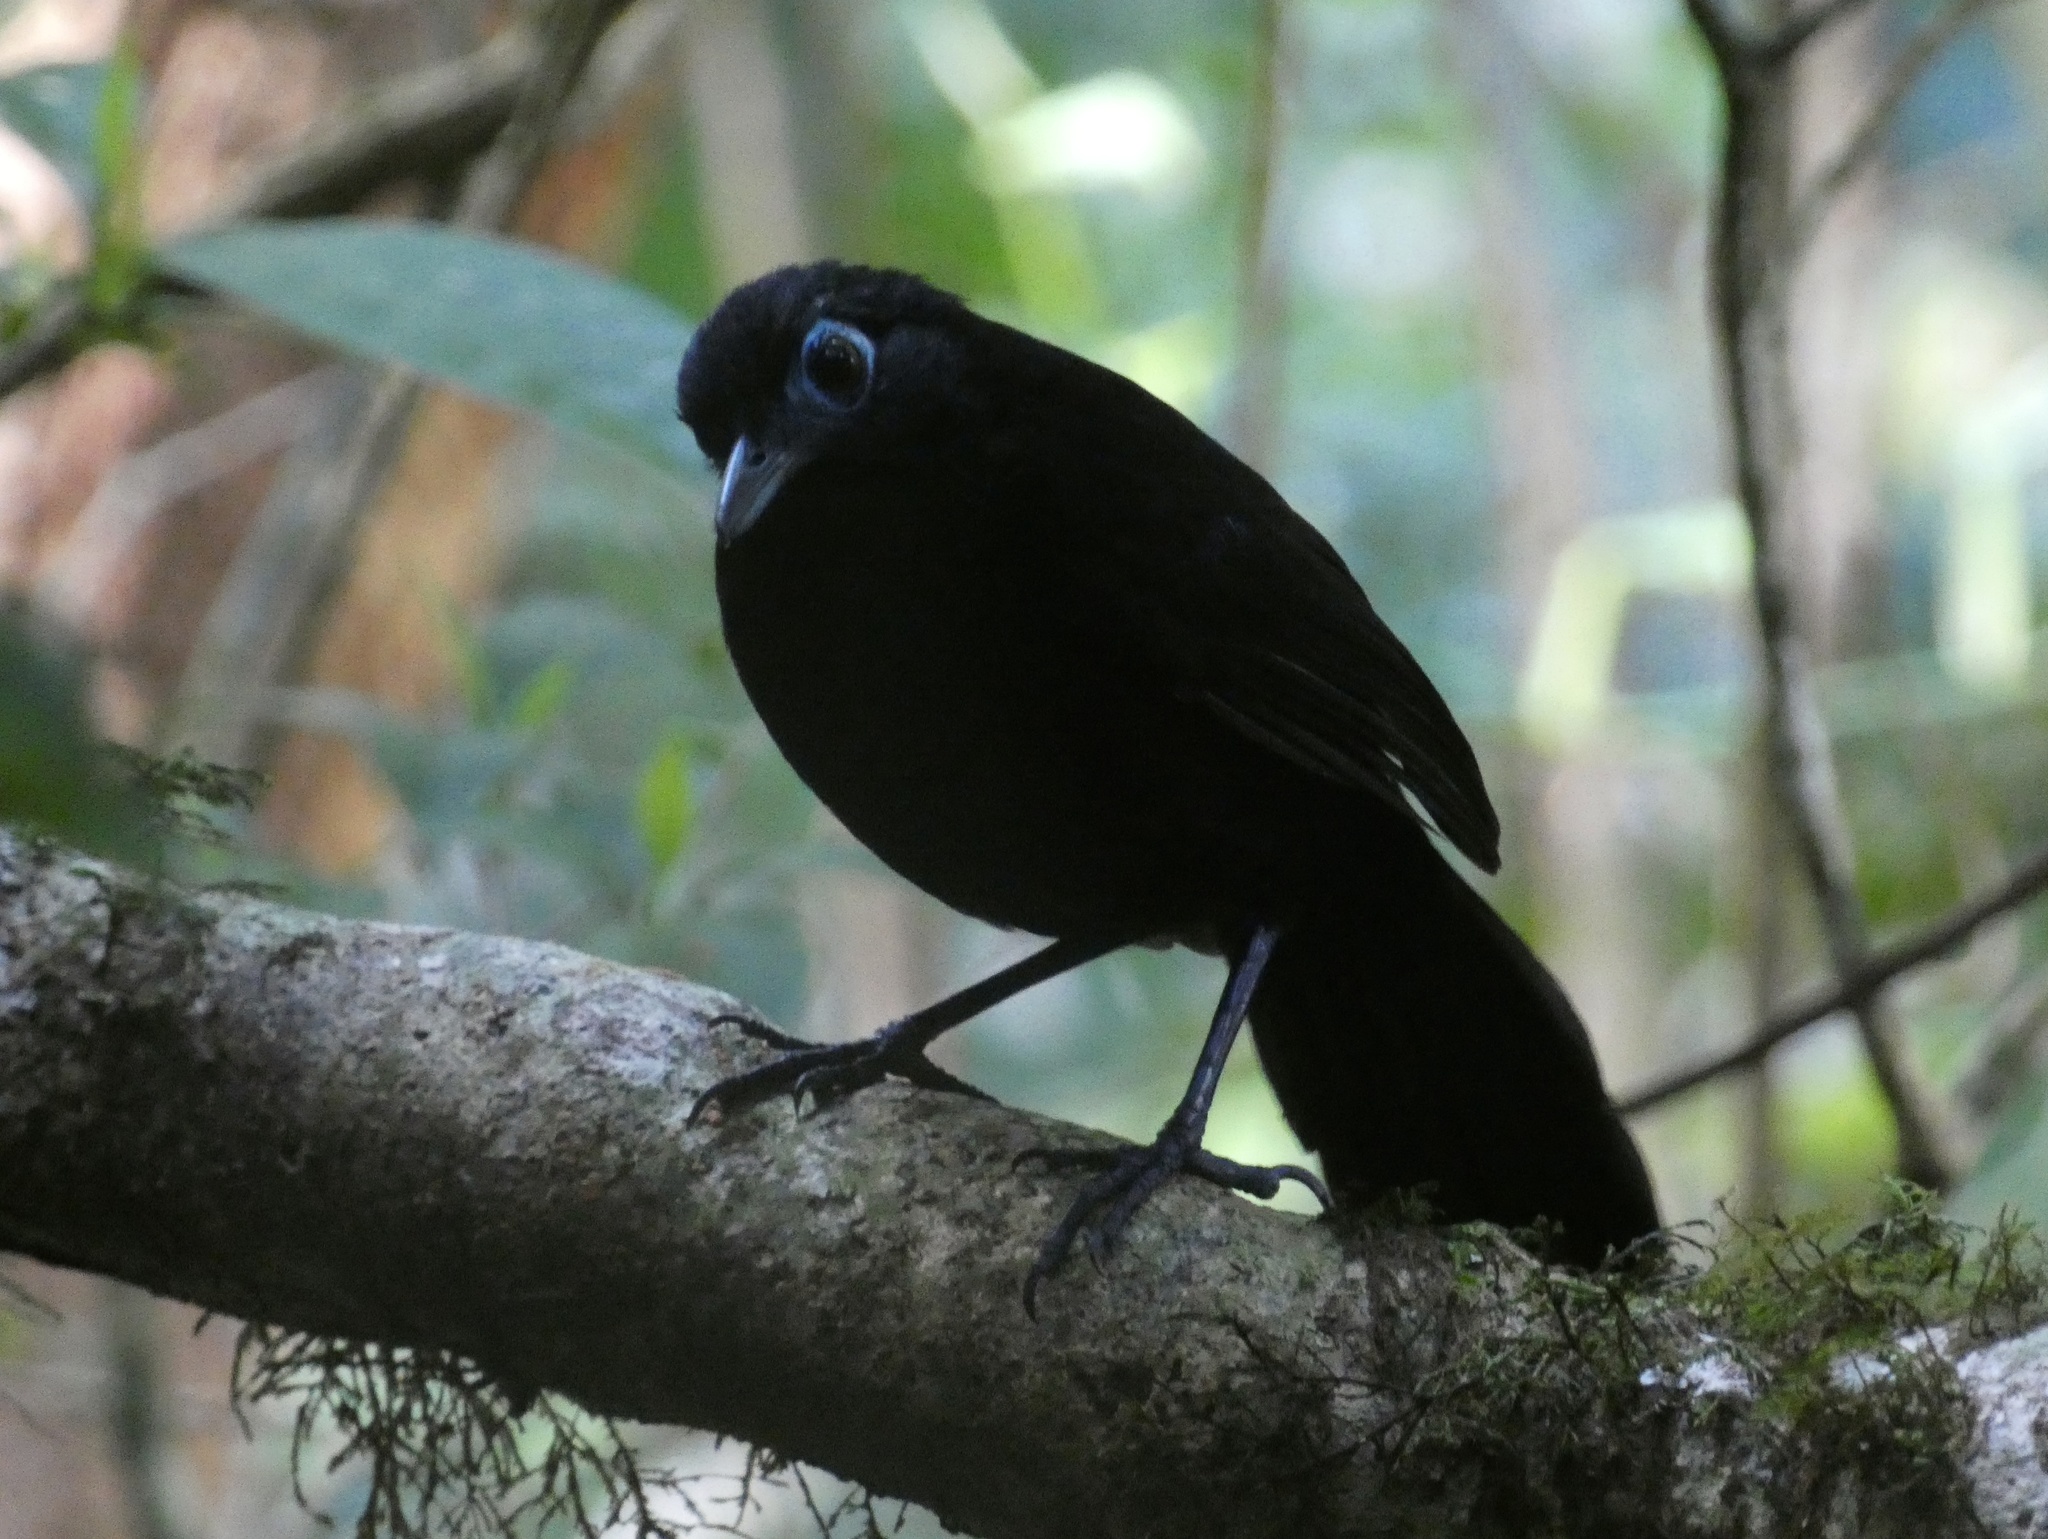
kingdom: Animalia
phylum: Chordata
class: Aves
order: Passeriformes
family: Thamnophilidae
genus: Hafferia
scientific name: Hafferia zeledoni
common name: Zeledon's antbird
